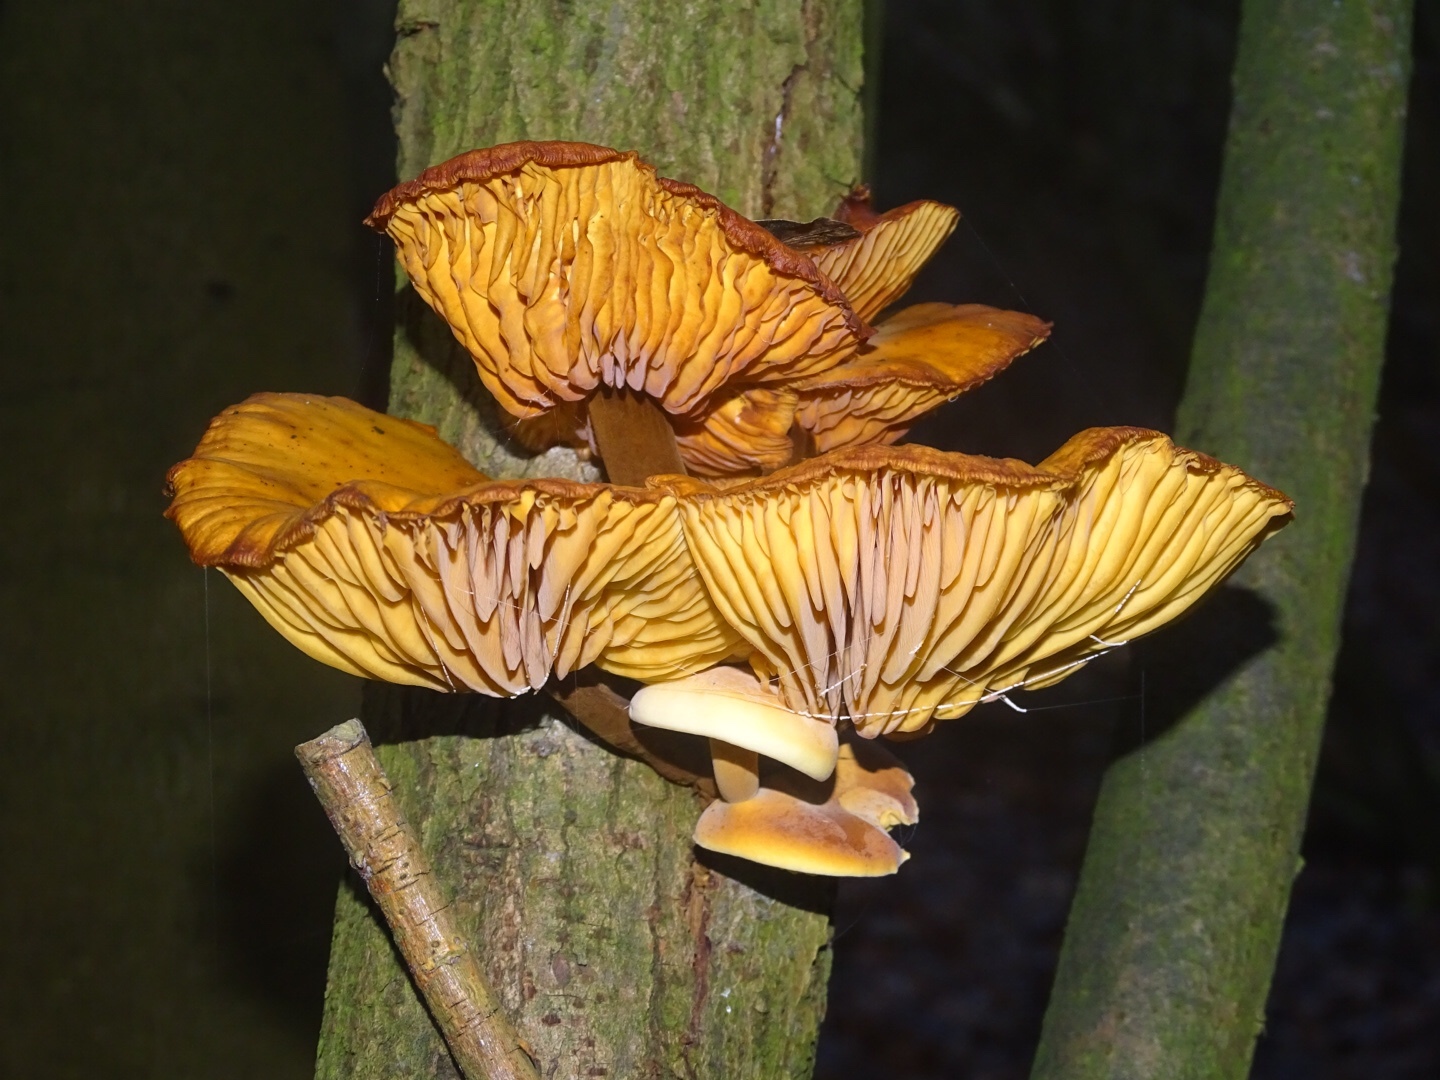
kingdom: Fungi
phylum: Basidiomycota
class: Agaricomycetes
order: Agaricales
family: Physalacriaceae
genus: Flammulina
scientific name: Flammulina
